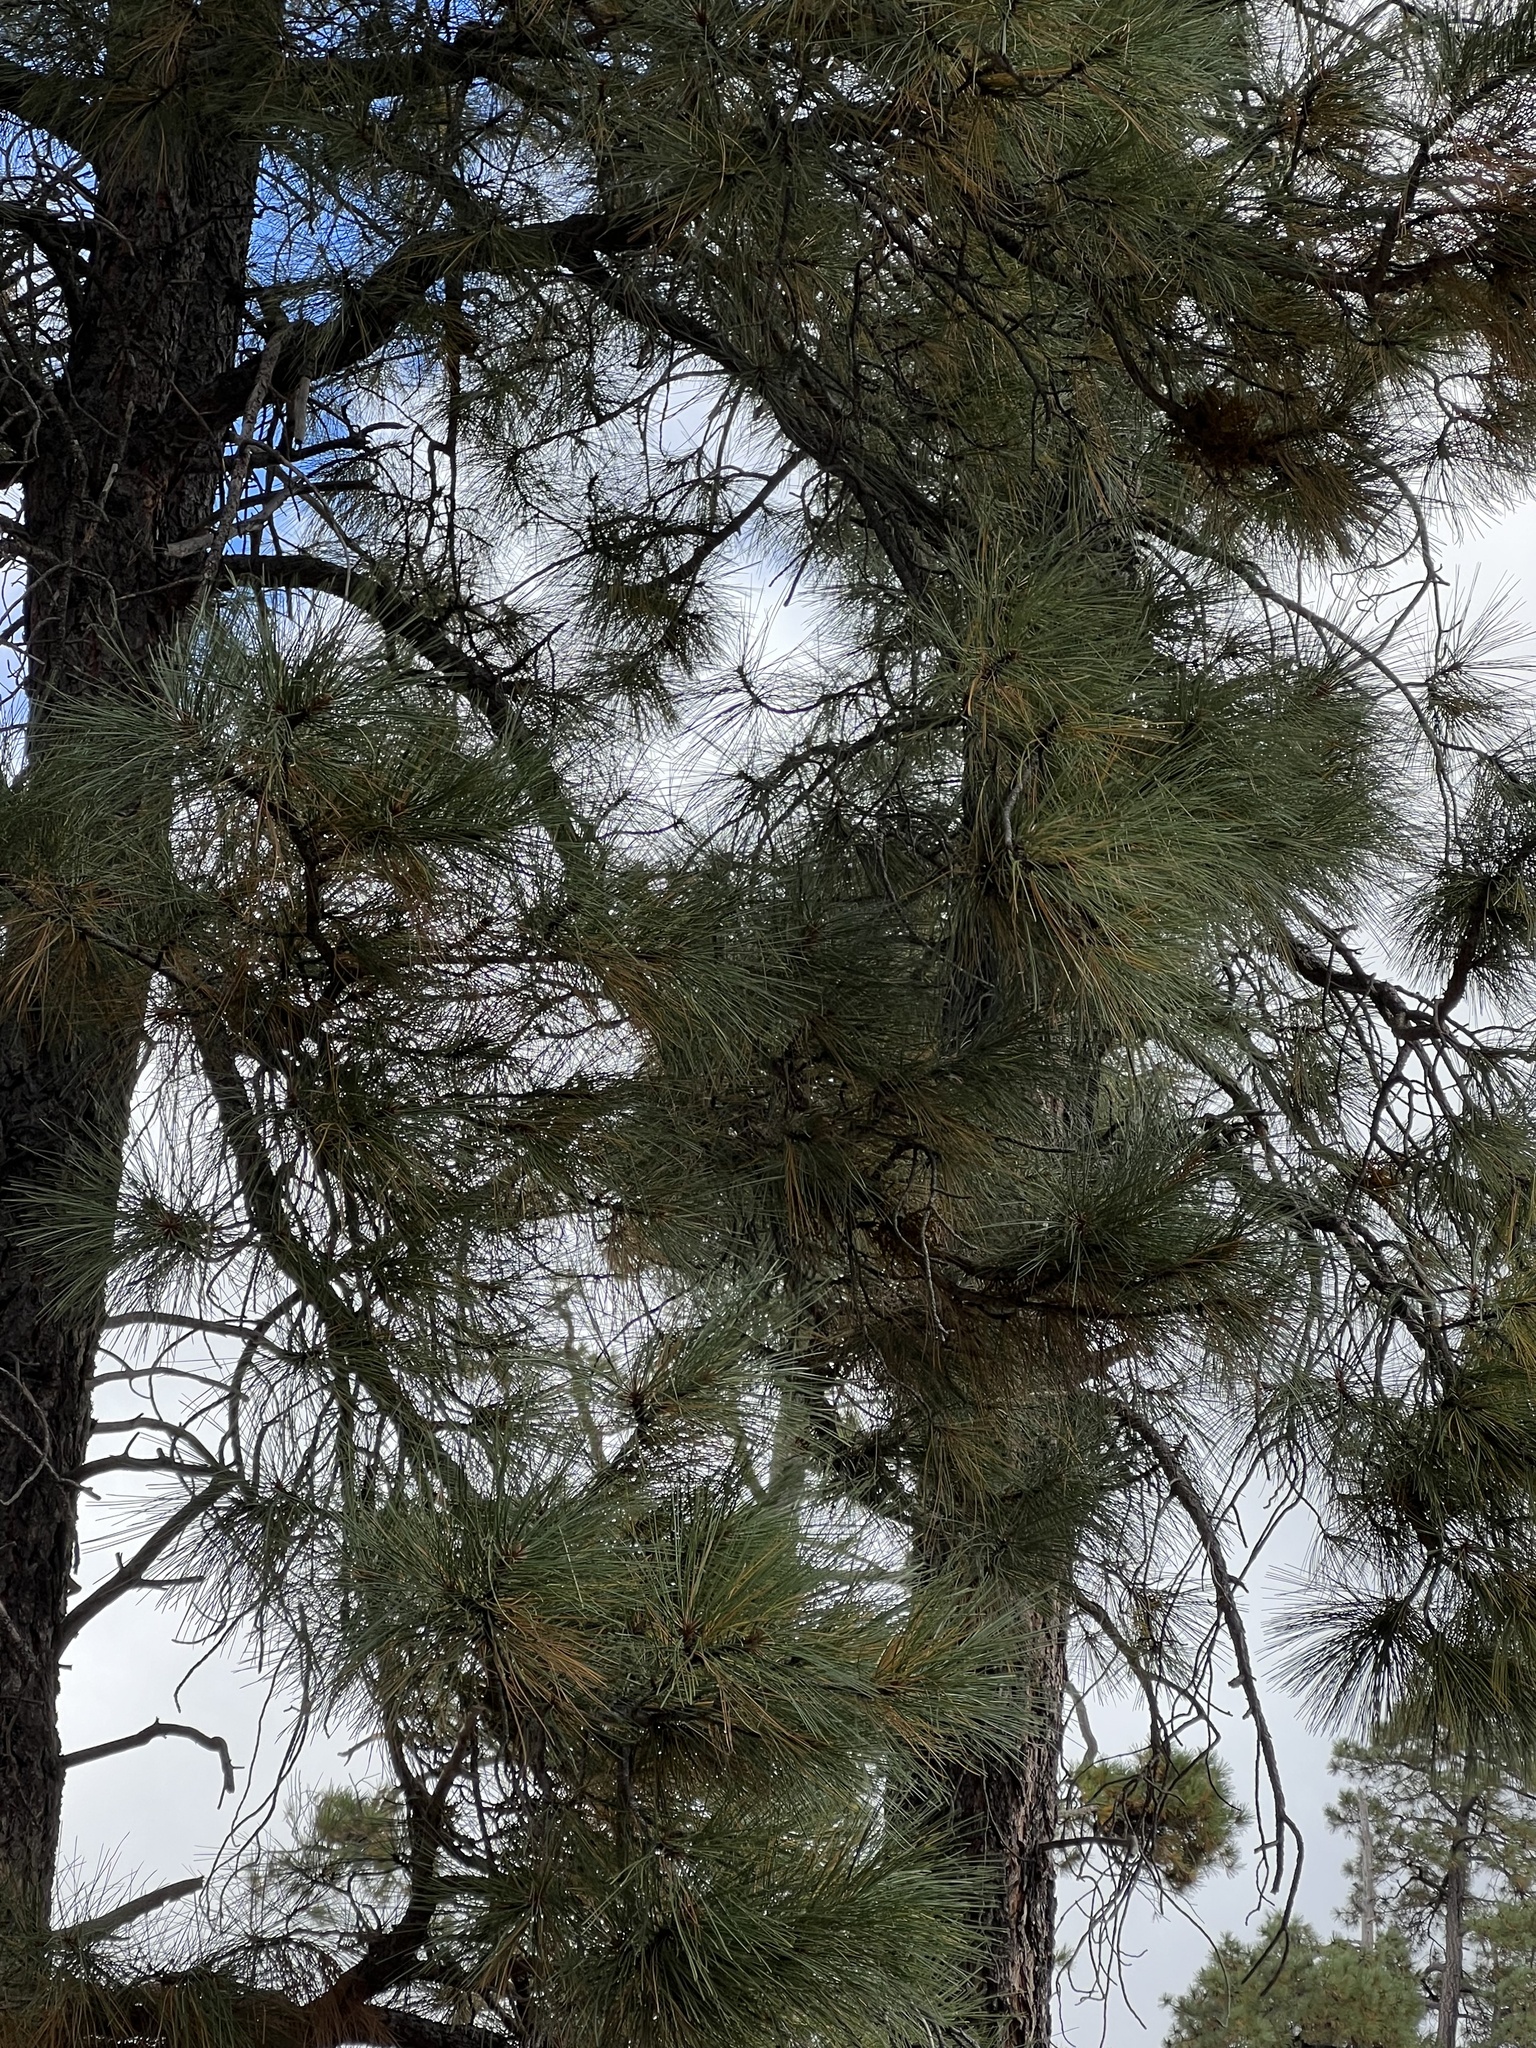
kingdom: Plantae
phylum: Tracheophyta
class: Pinopsida
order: Pinales
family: Pinaceae
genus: Pinus
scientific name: Pinus ponderosa
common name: Western yellow-pine
